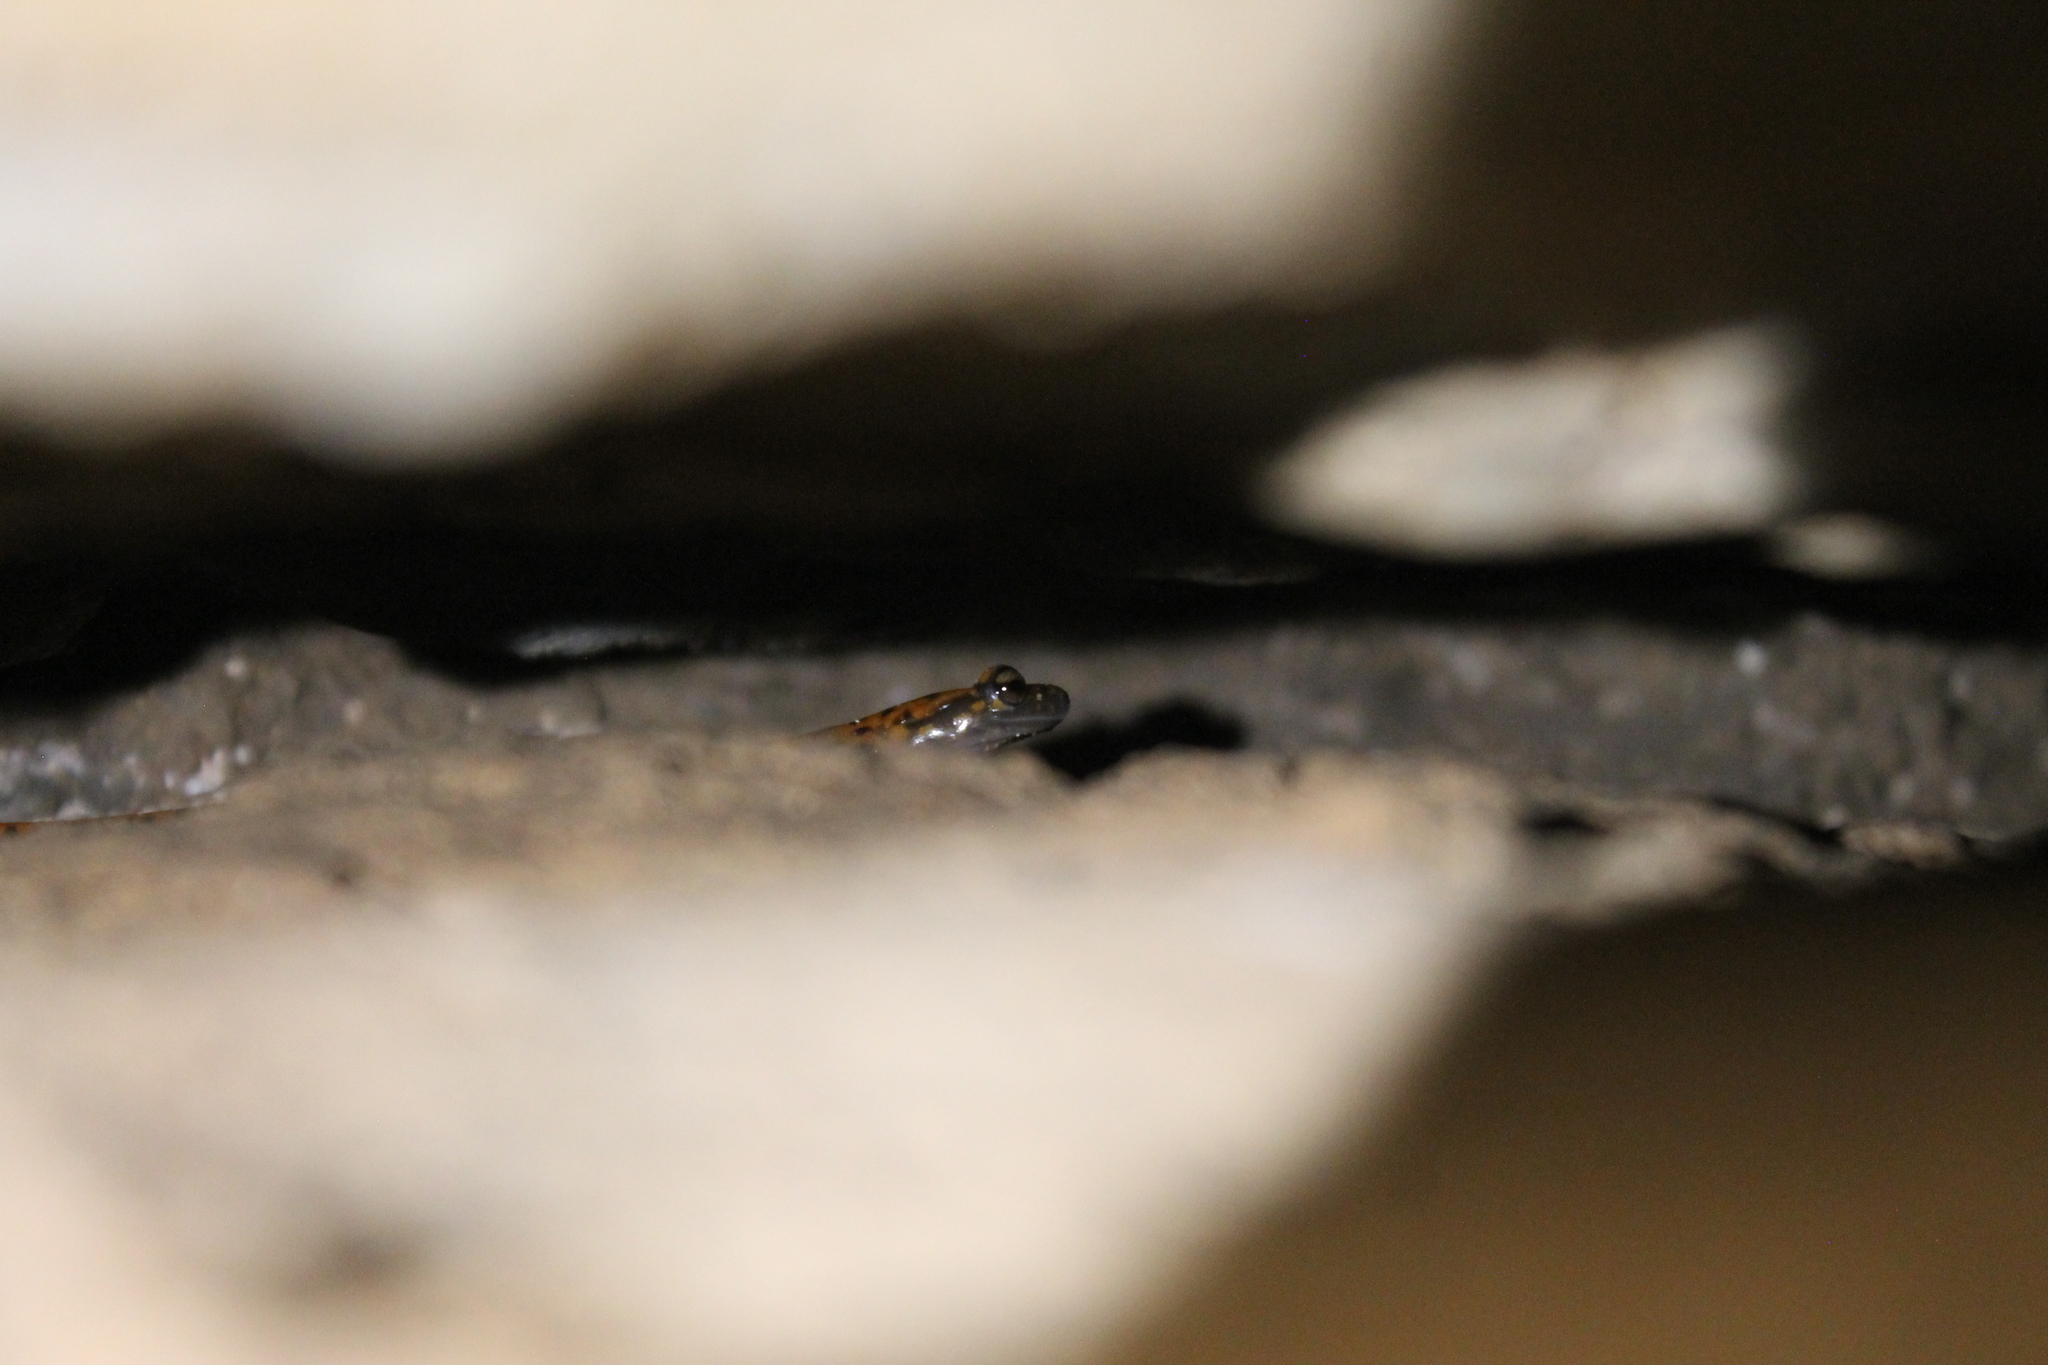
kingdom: Animalia
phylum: Chordata
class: Amphibia
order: Caudata
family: Plethodontidae
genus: Eurycea
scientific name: Eurycea lucifuga
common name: Cave salamander
